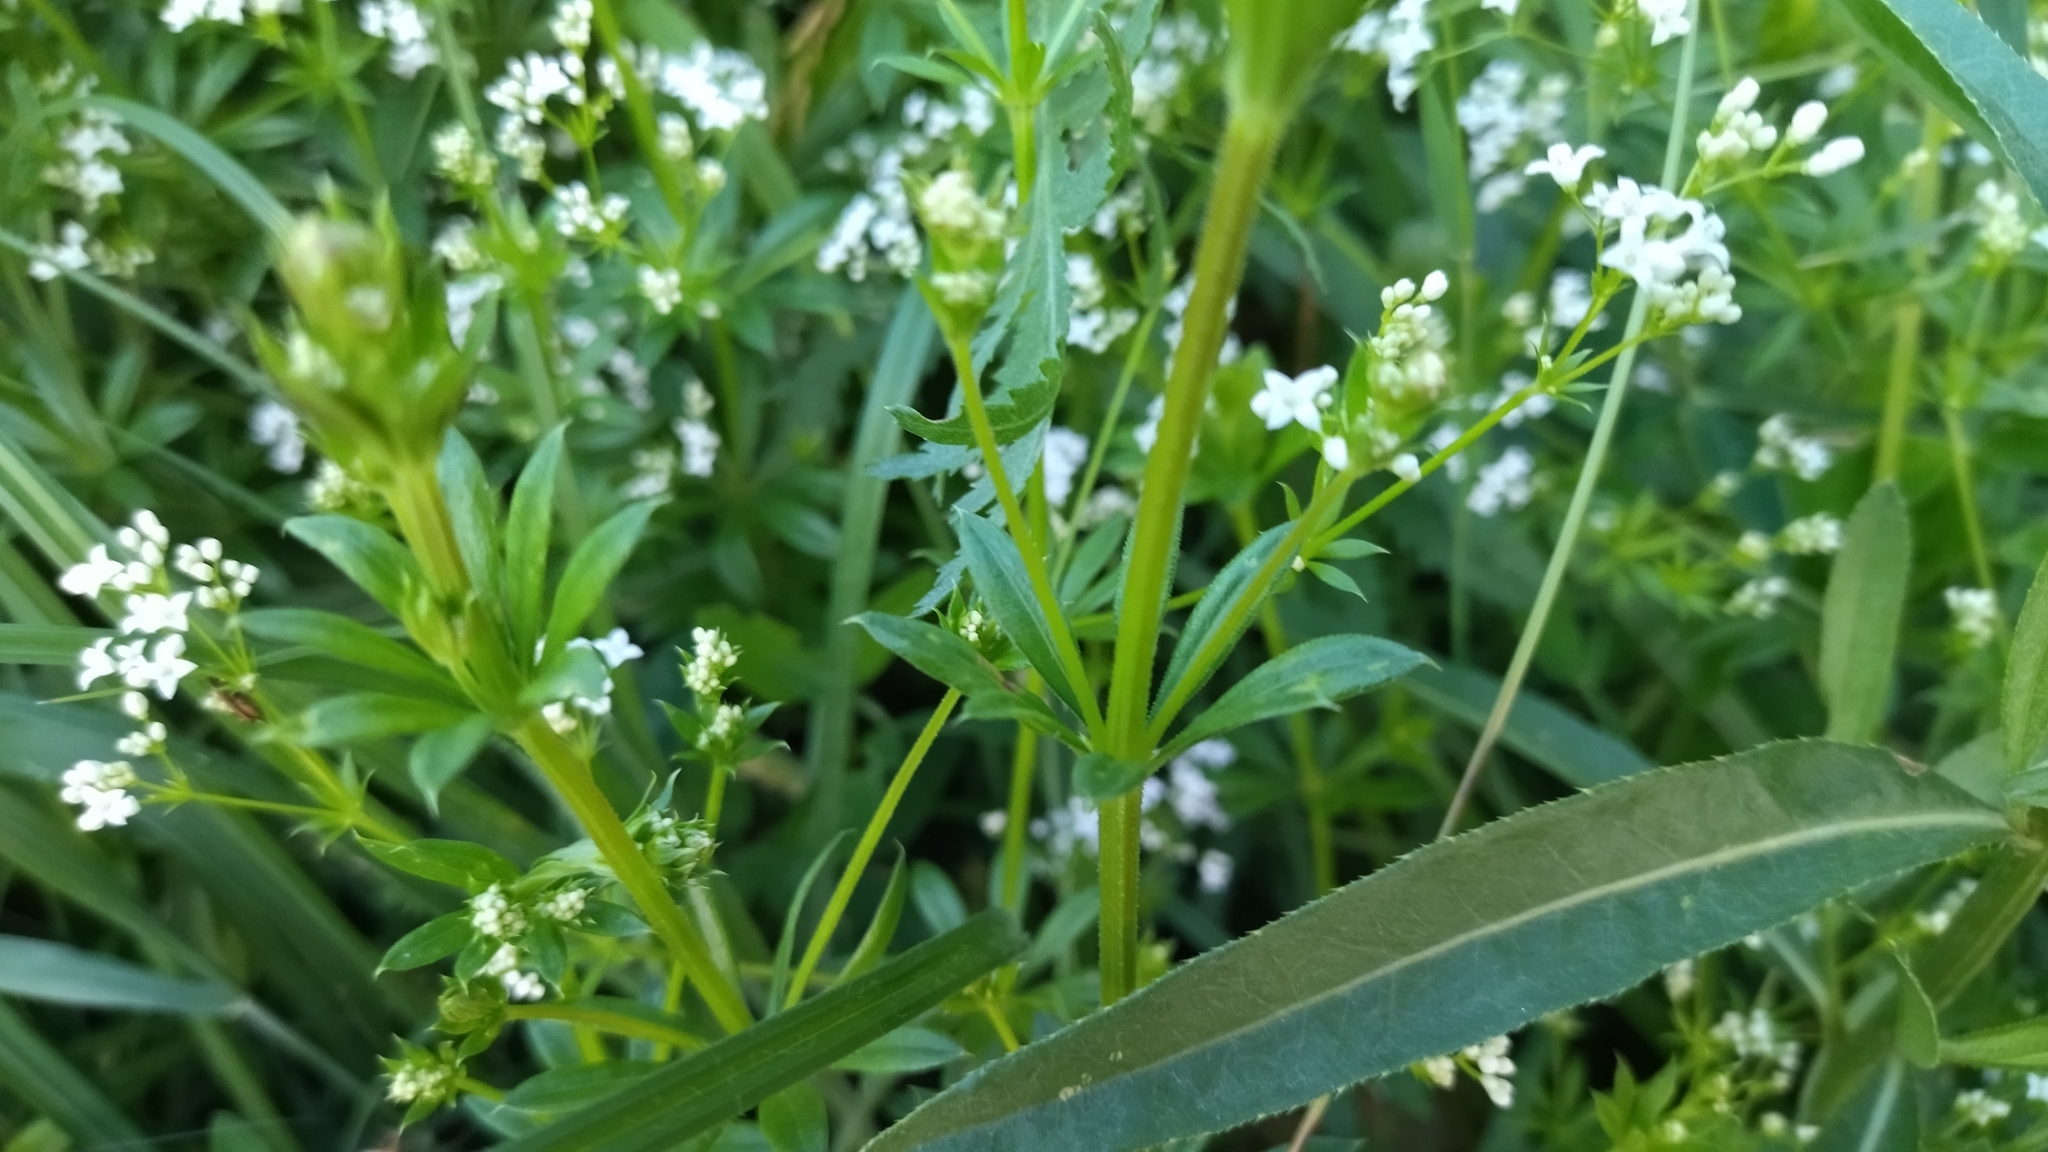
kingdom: Plantae
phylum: Tracheophyta
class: Magnoliopsida
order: Gentianales
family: Rubiaceae
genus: Galium
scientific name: Galium rivale
